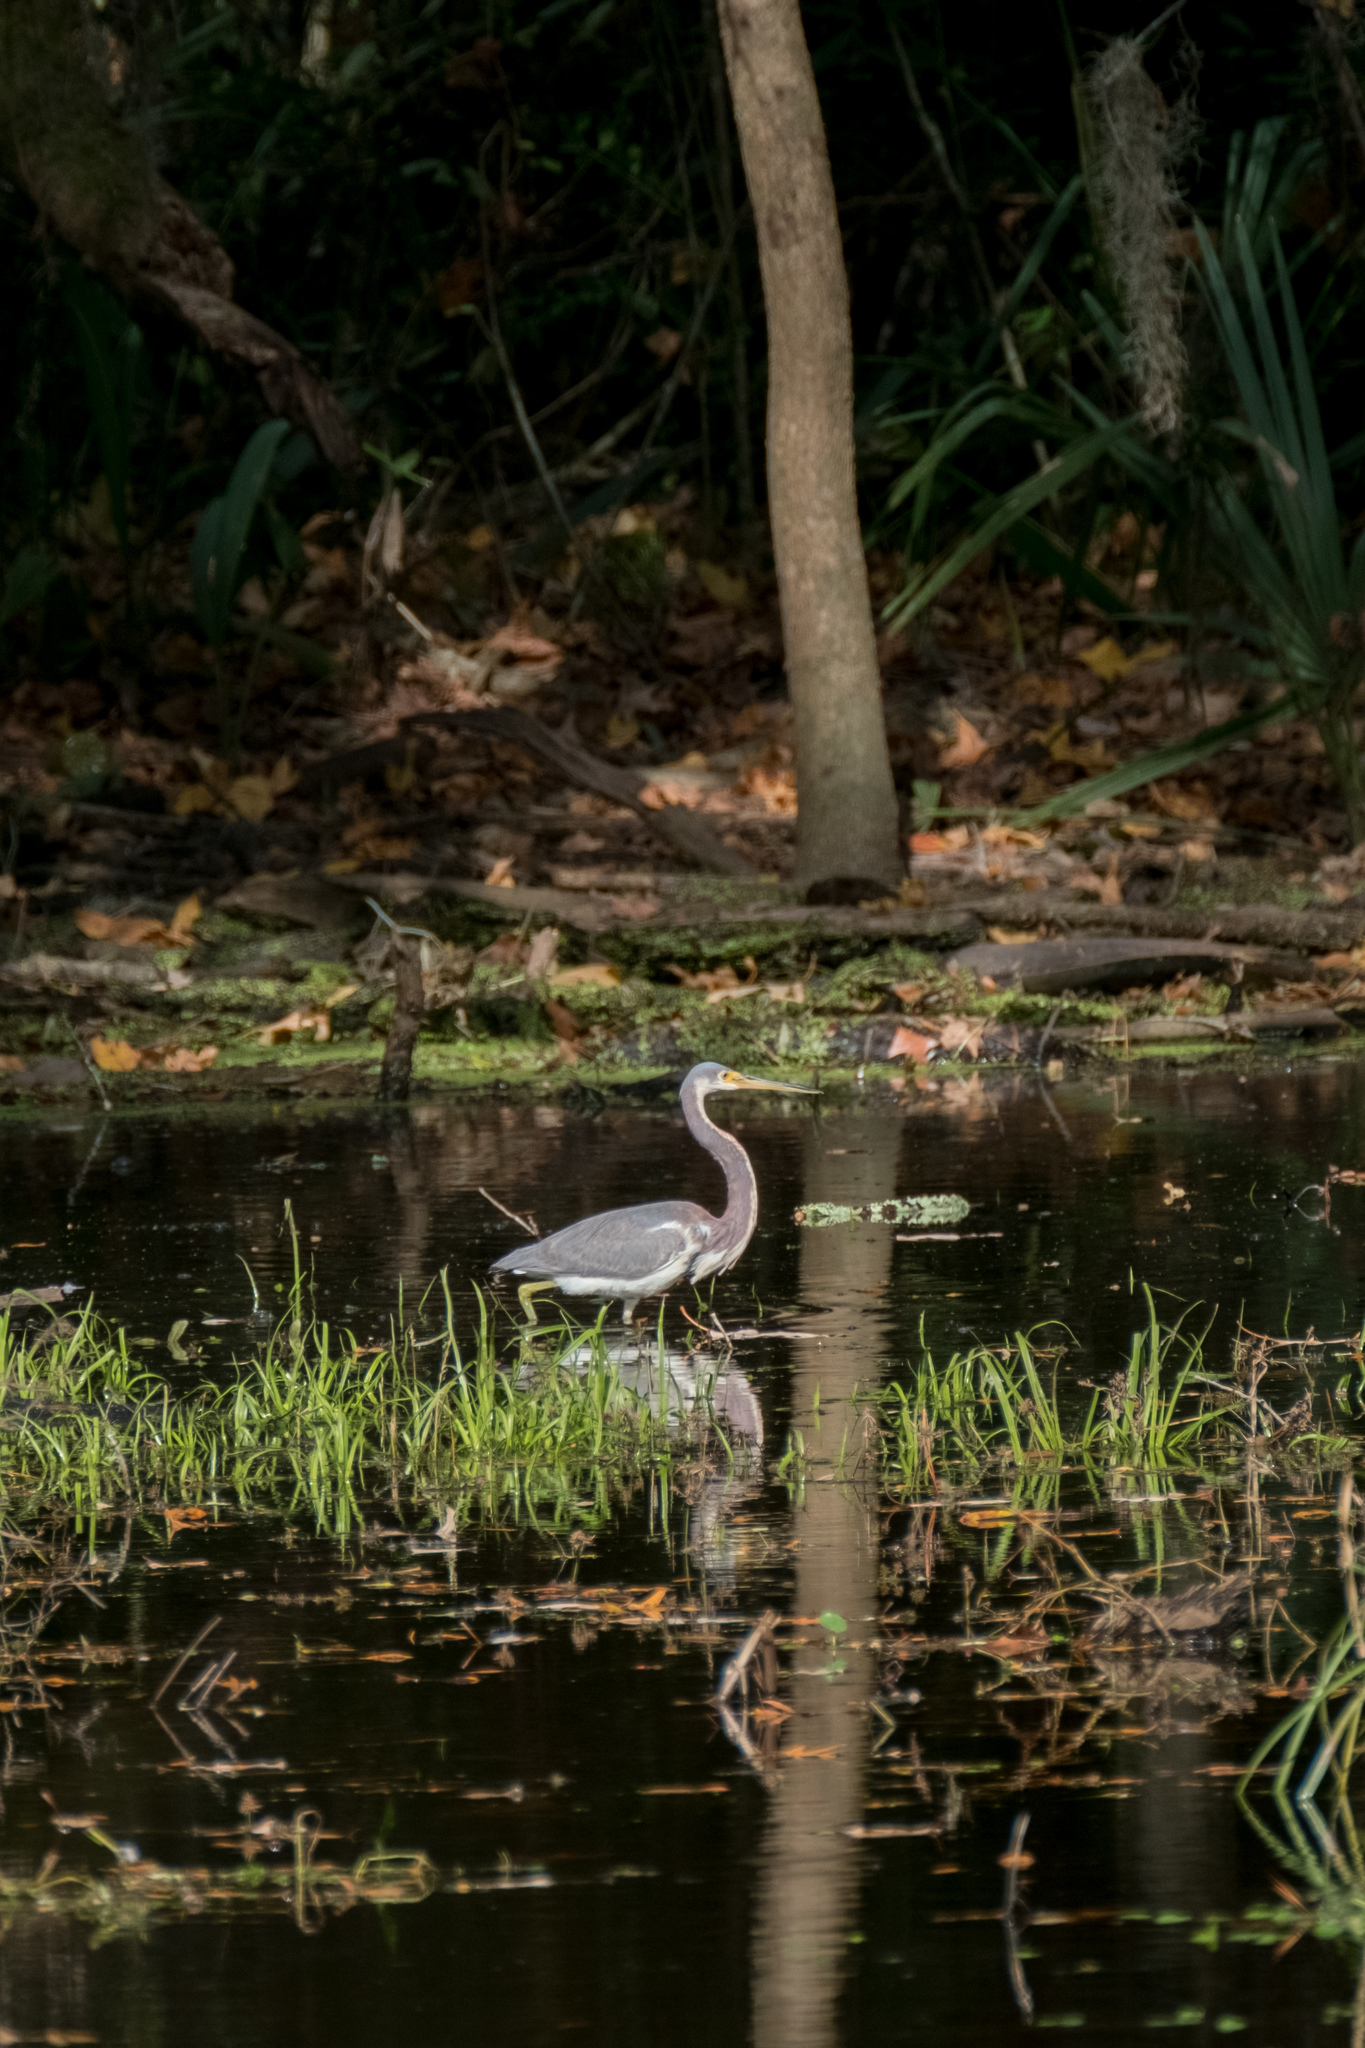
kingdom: Animalia
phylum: Chordata
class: Aves
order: Pelecaniformes
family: Ardeidae
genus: Egretta
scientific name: Egretta tricolor
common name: Tricolored heron
